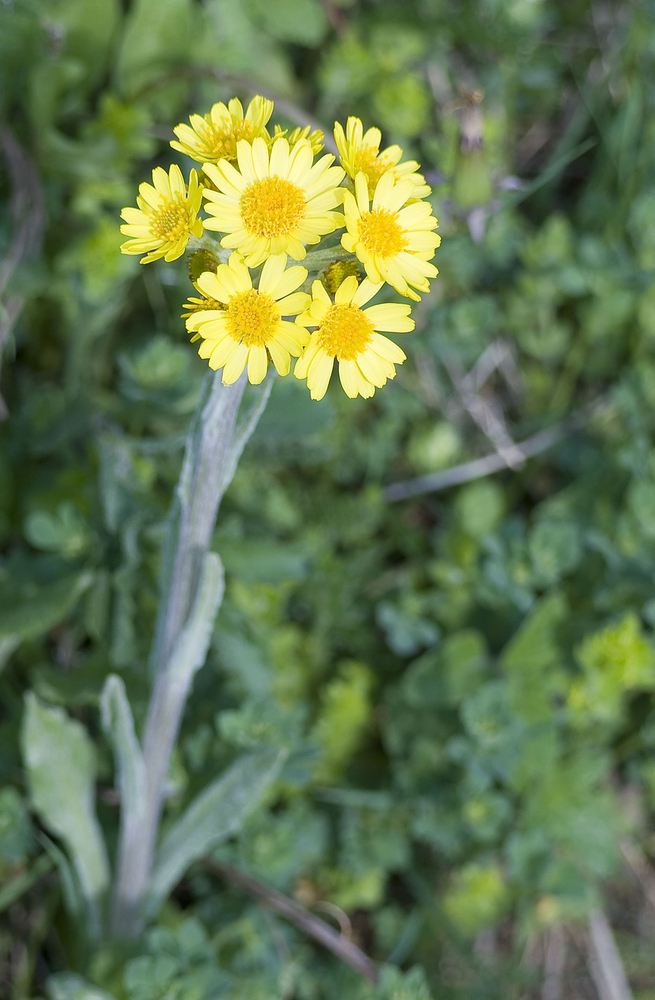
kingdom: Plantae
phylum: Tracheophyta
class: Magnoliopsida
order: Asterales
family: Asteraceae
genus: Tephroseris
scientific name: Tephroseris helenitis
